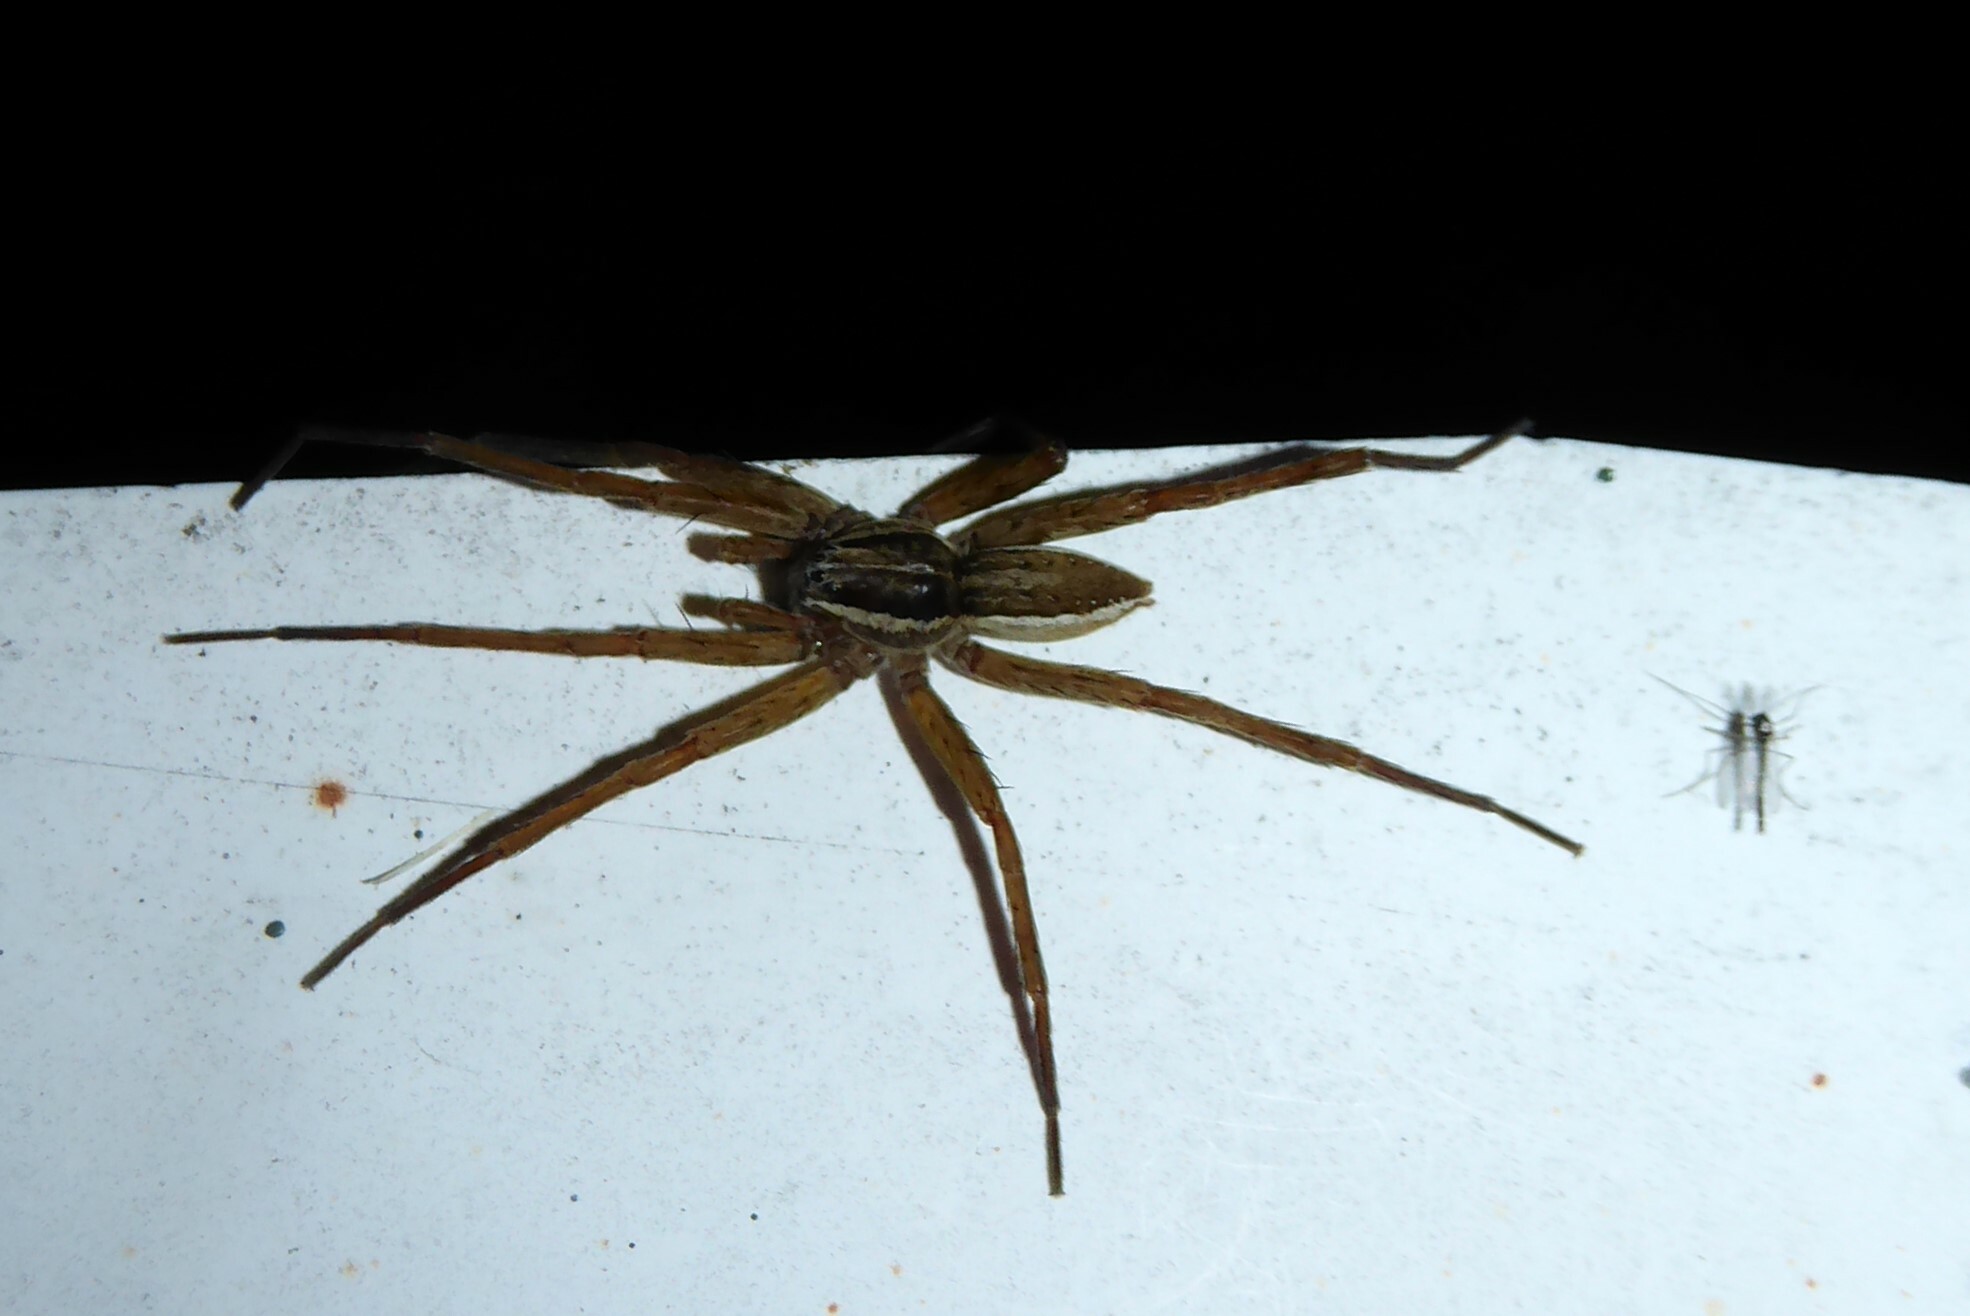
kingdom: Animalia
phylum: Arthropoda
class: Arachnida
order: Araneae
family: Pisauridae
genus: Dolomedes
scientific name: Dolomedes minor
